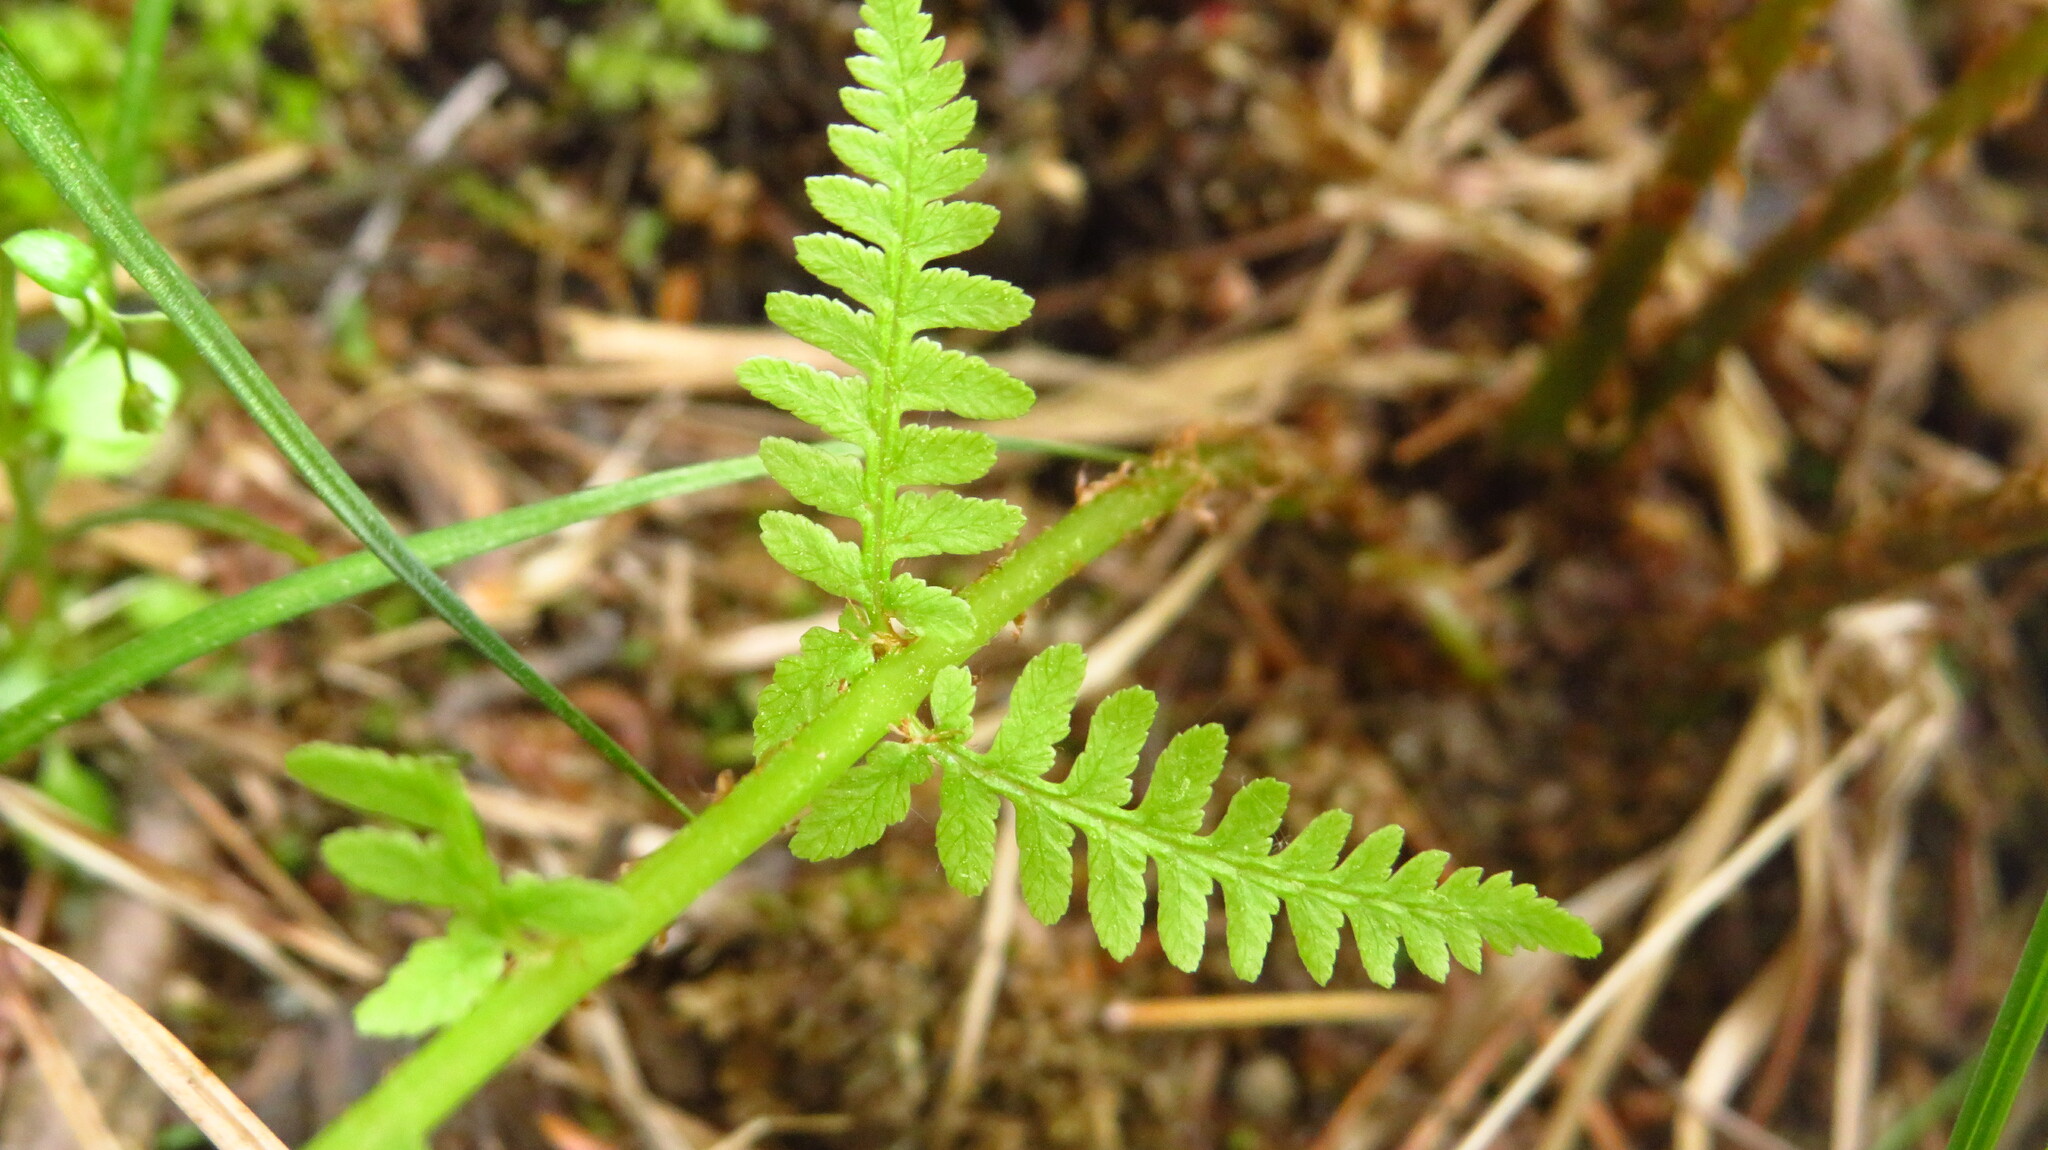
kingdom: Plantae
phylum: Tracheophyta
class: Polypodiopsida
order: Polypodiales
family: Athyriaceae
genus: Athyrium
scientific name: Athyrium angustum
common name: Northern lady fern
